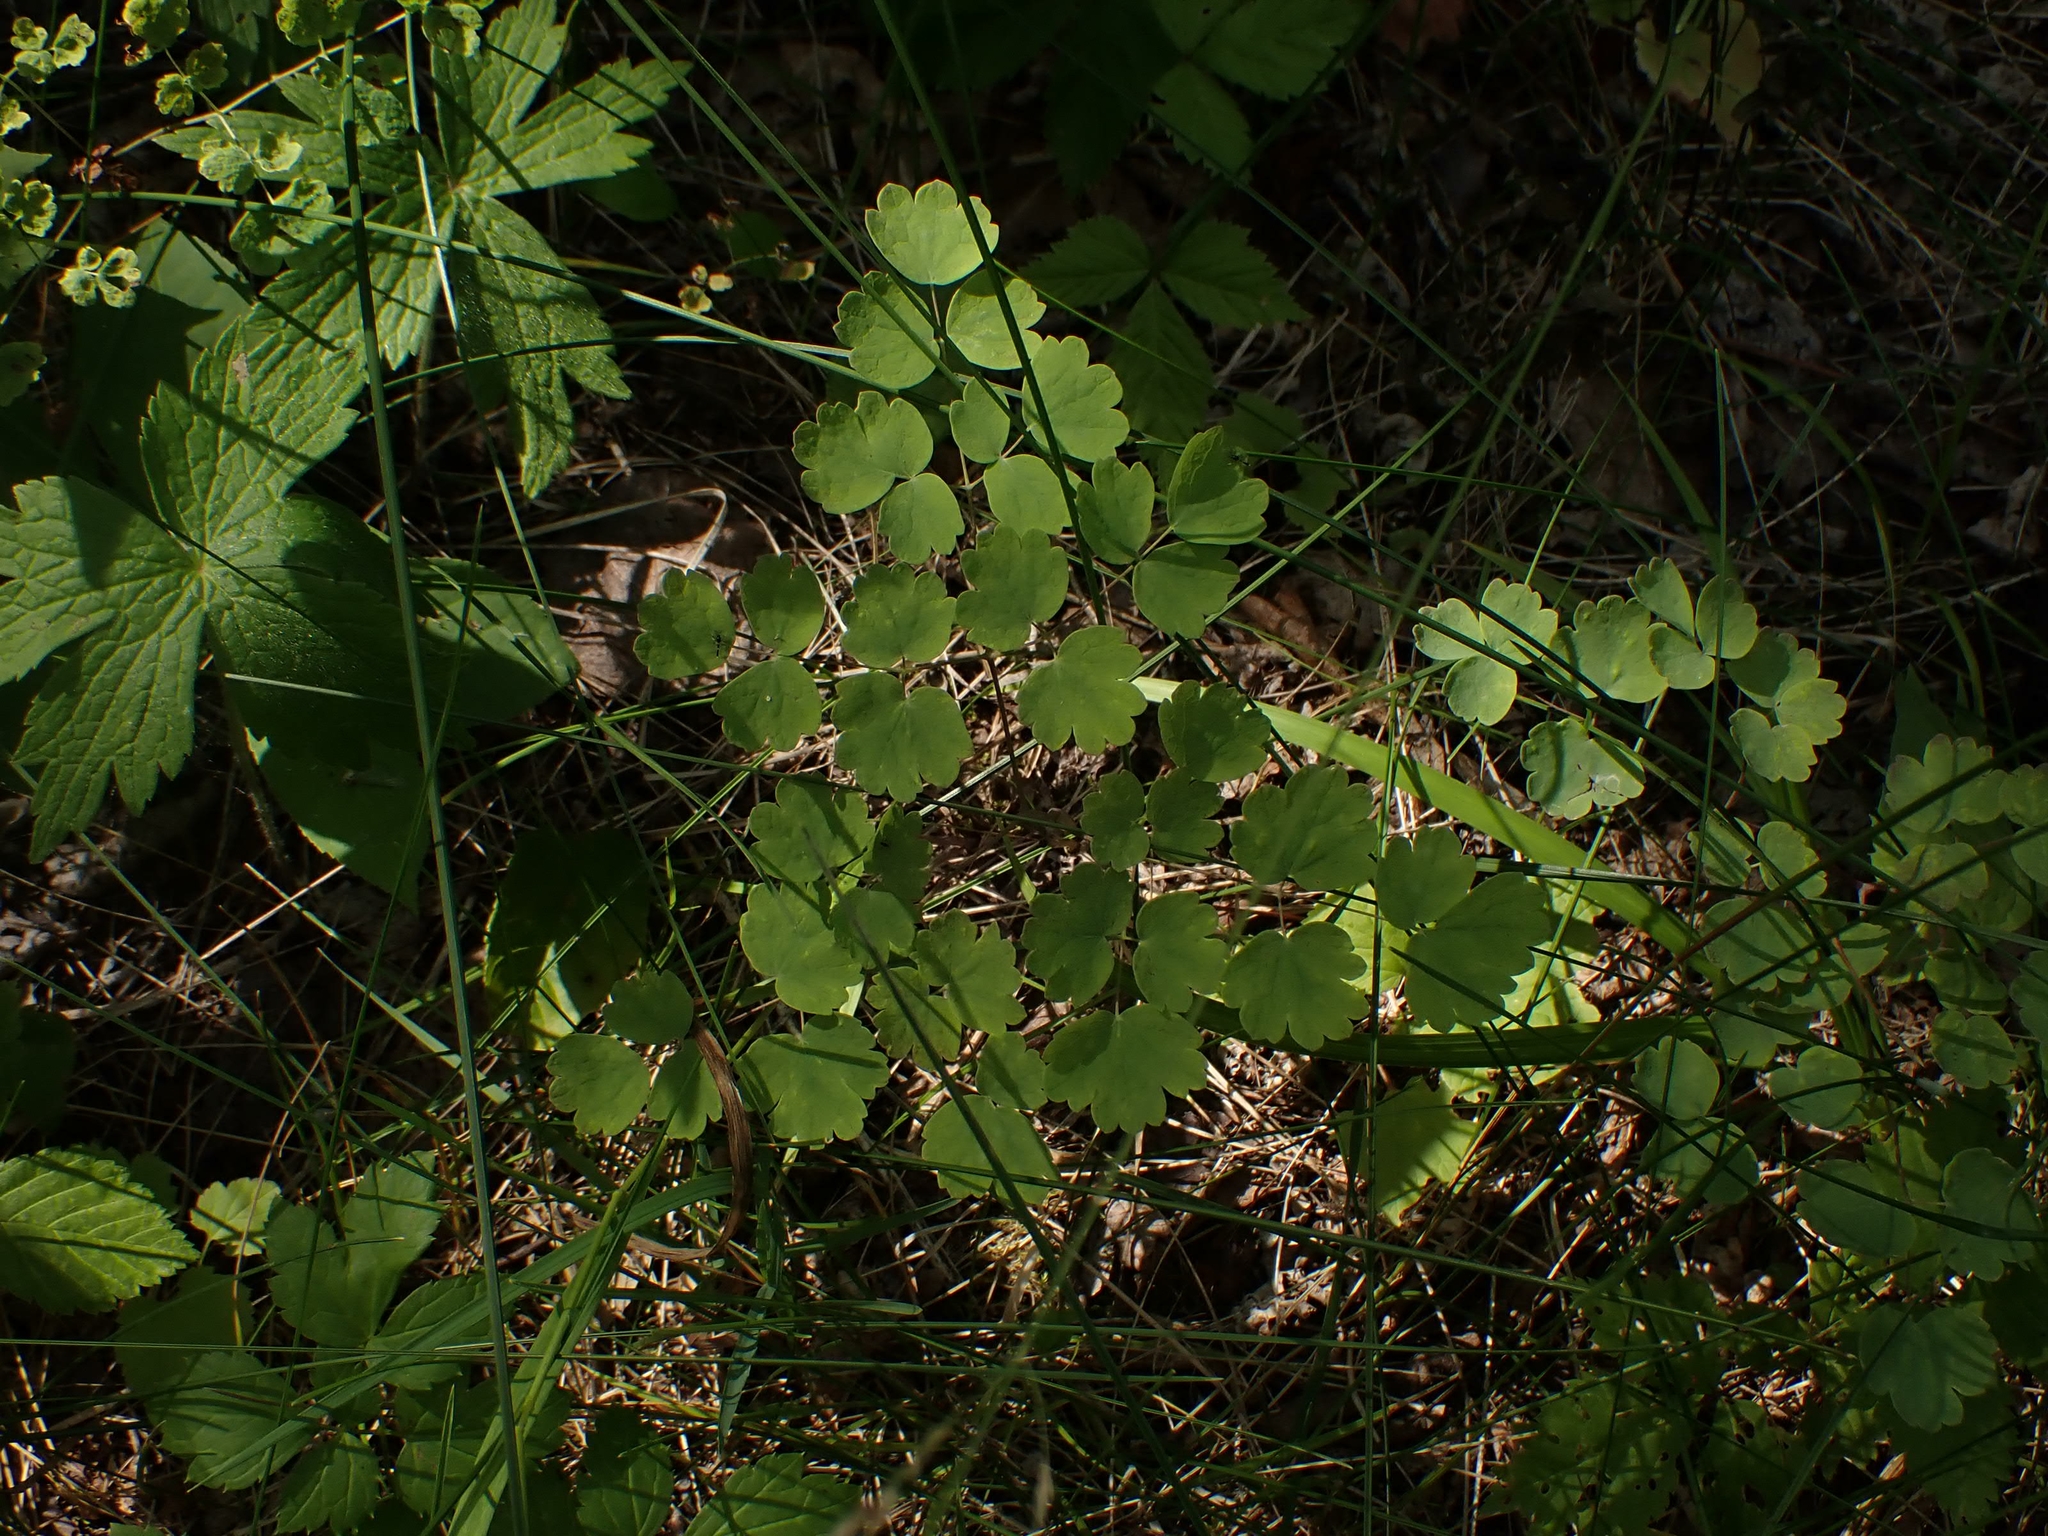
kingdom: Plantae
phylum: Tracheophyta
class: Magnoliopsida
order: Ranunculales
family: Ranunculaceae
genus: Thalictrum
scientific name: Thalictrum venulosum
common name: Early meadow-rue
